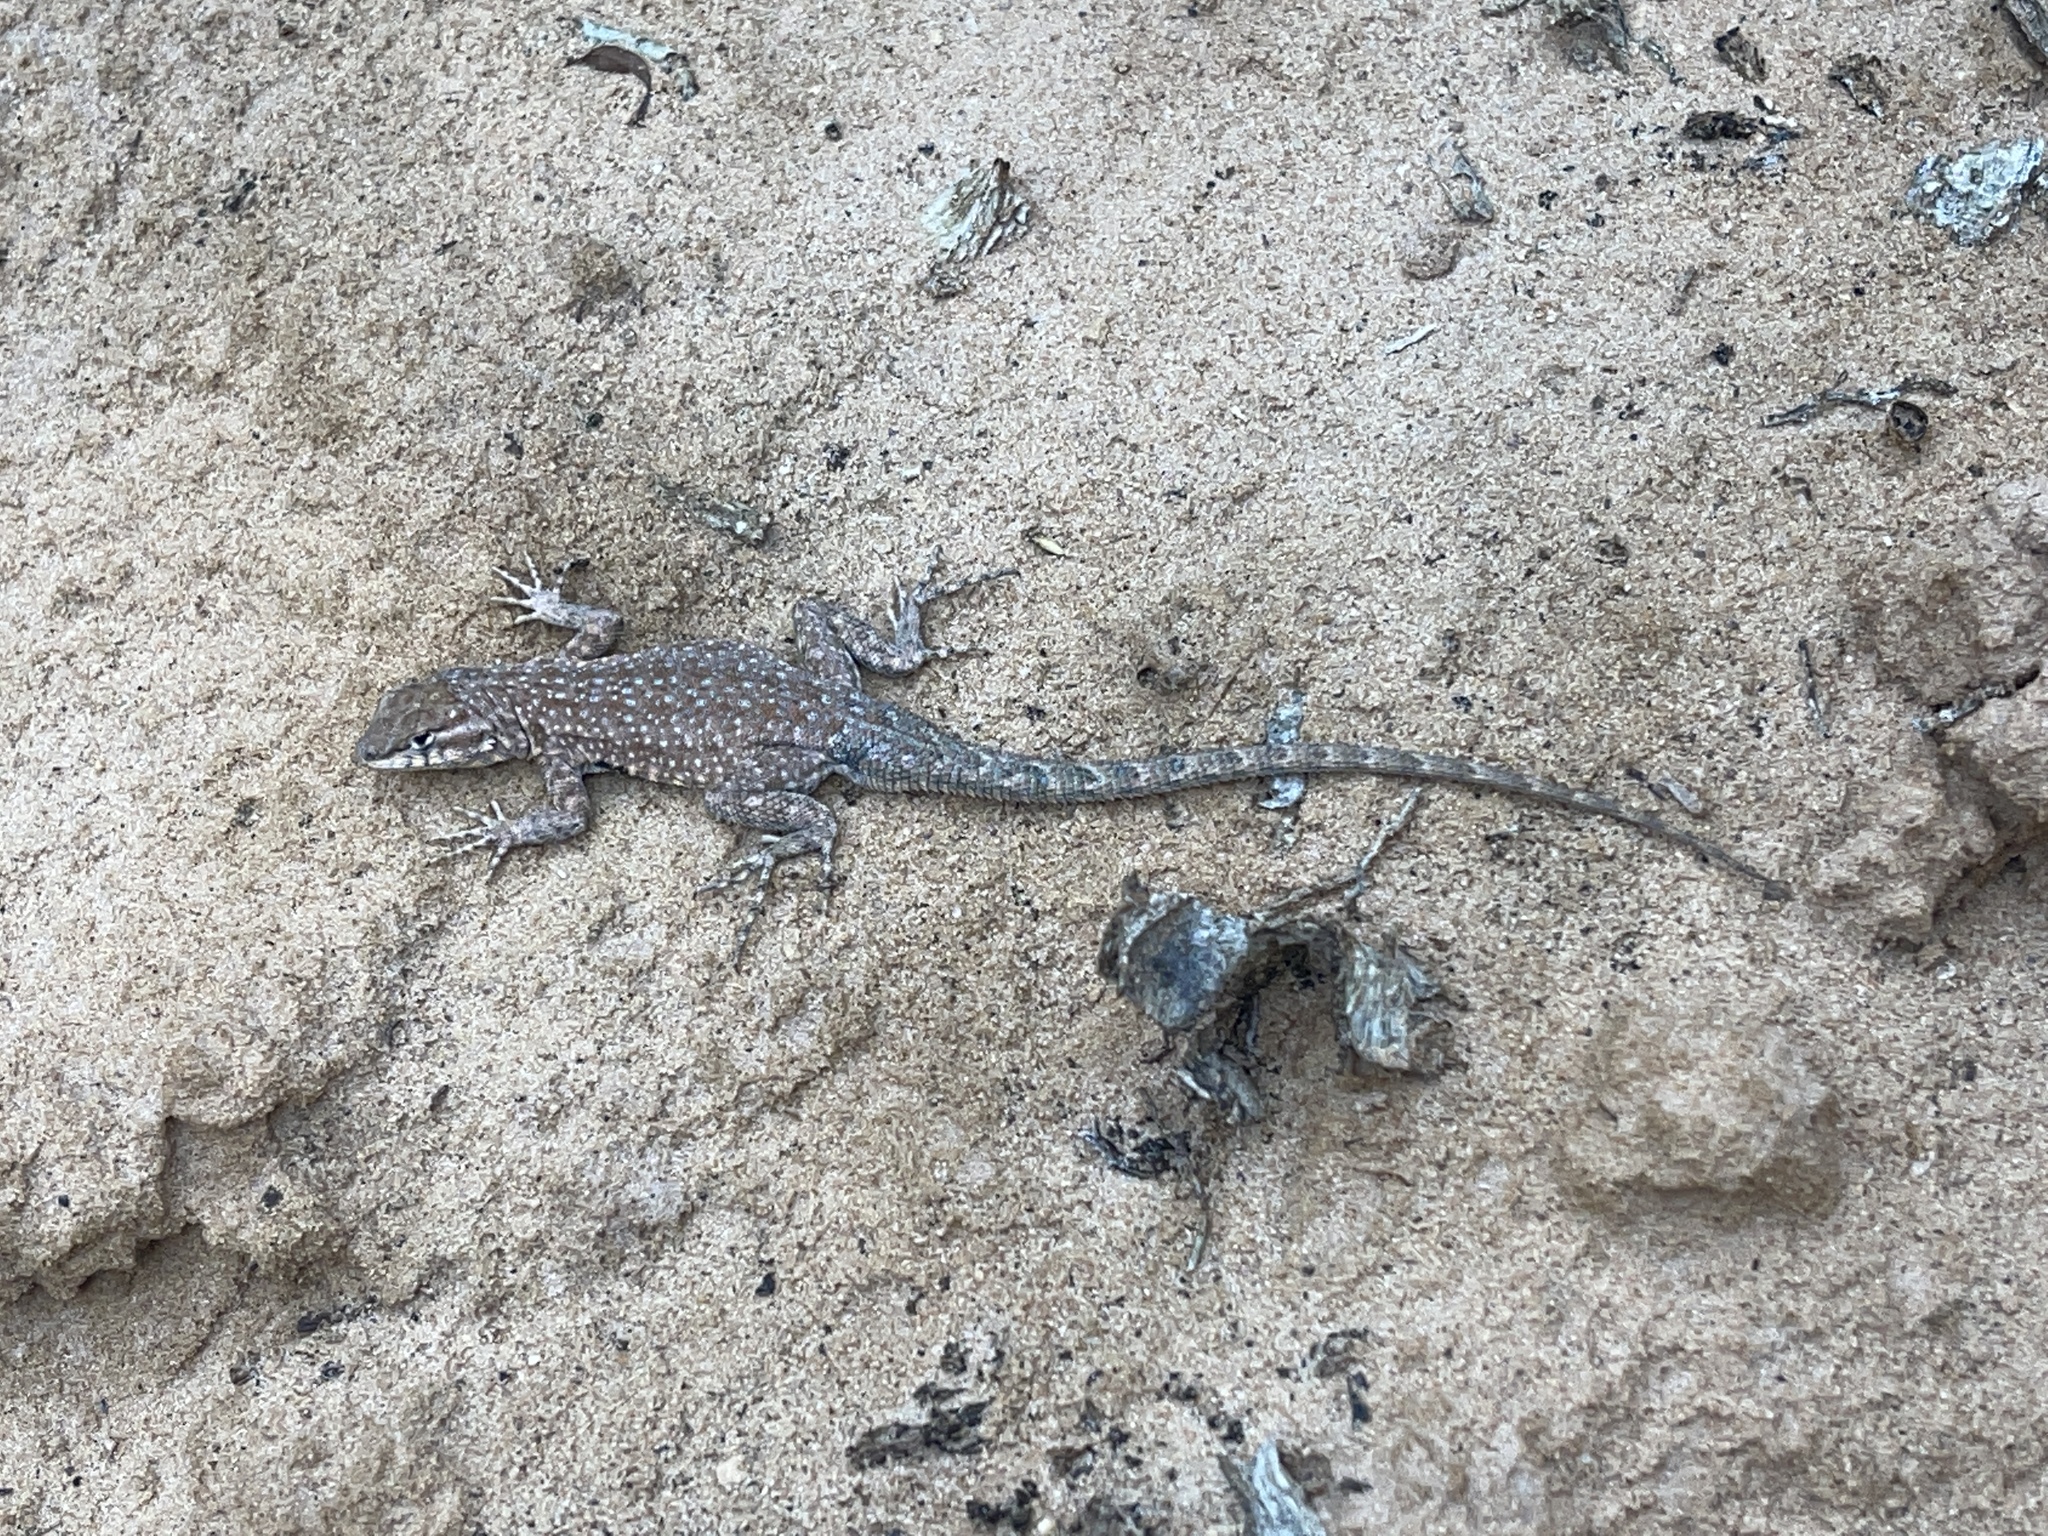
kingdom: Animalia
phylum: Chordata
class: Squamata
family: Phrynosomatidae
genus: Uta
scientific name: Uta stansburiana
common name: Side-blotched lizard
